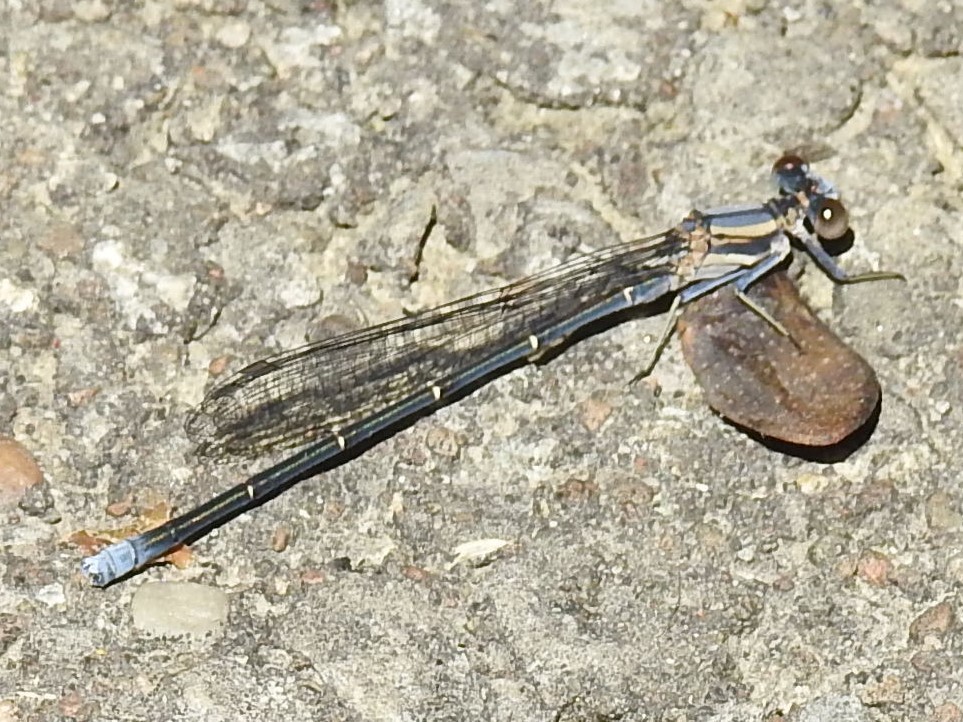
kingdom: Animalia
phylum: Arthropoda
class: Insecta
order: Odonata
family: Coenagrionidae
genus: Argia
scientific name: Argia moesta
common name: Powdered dancer
